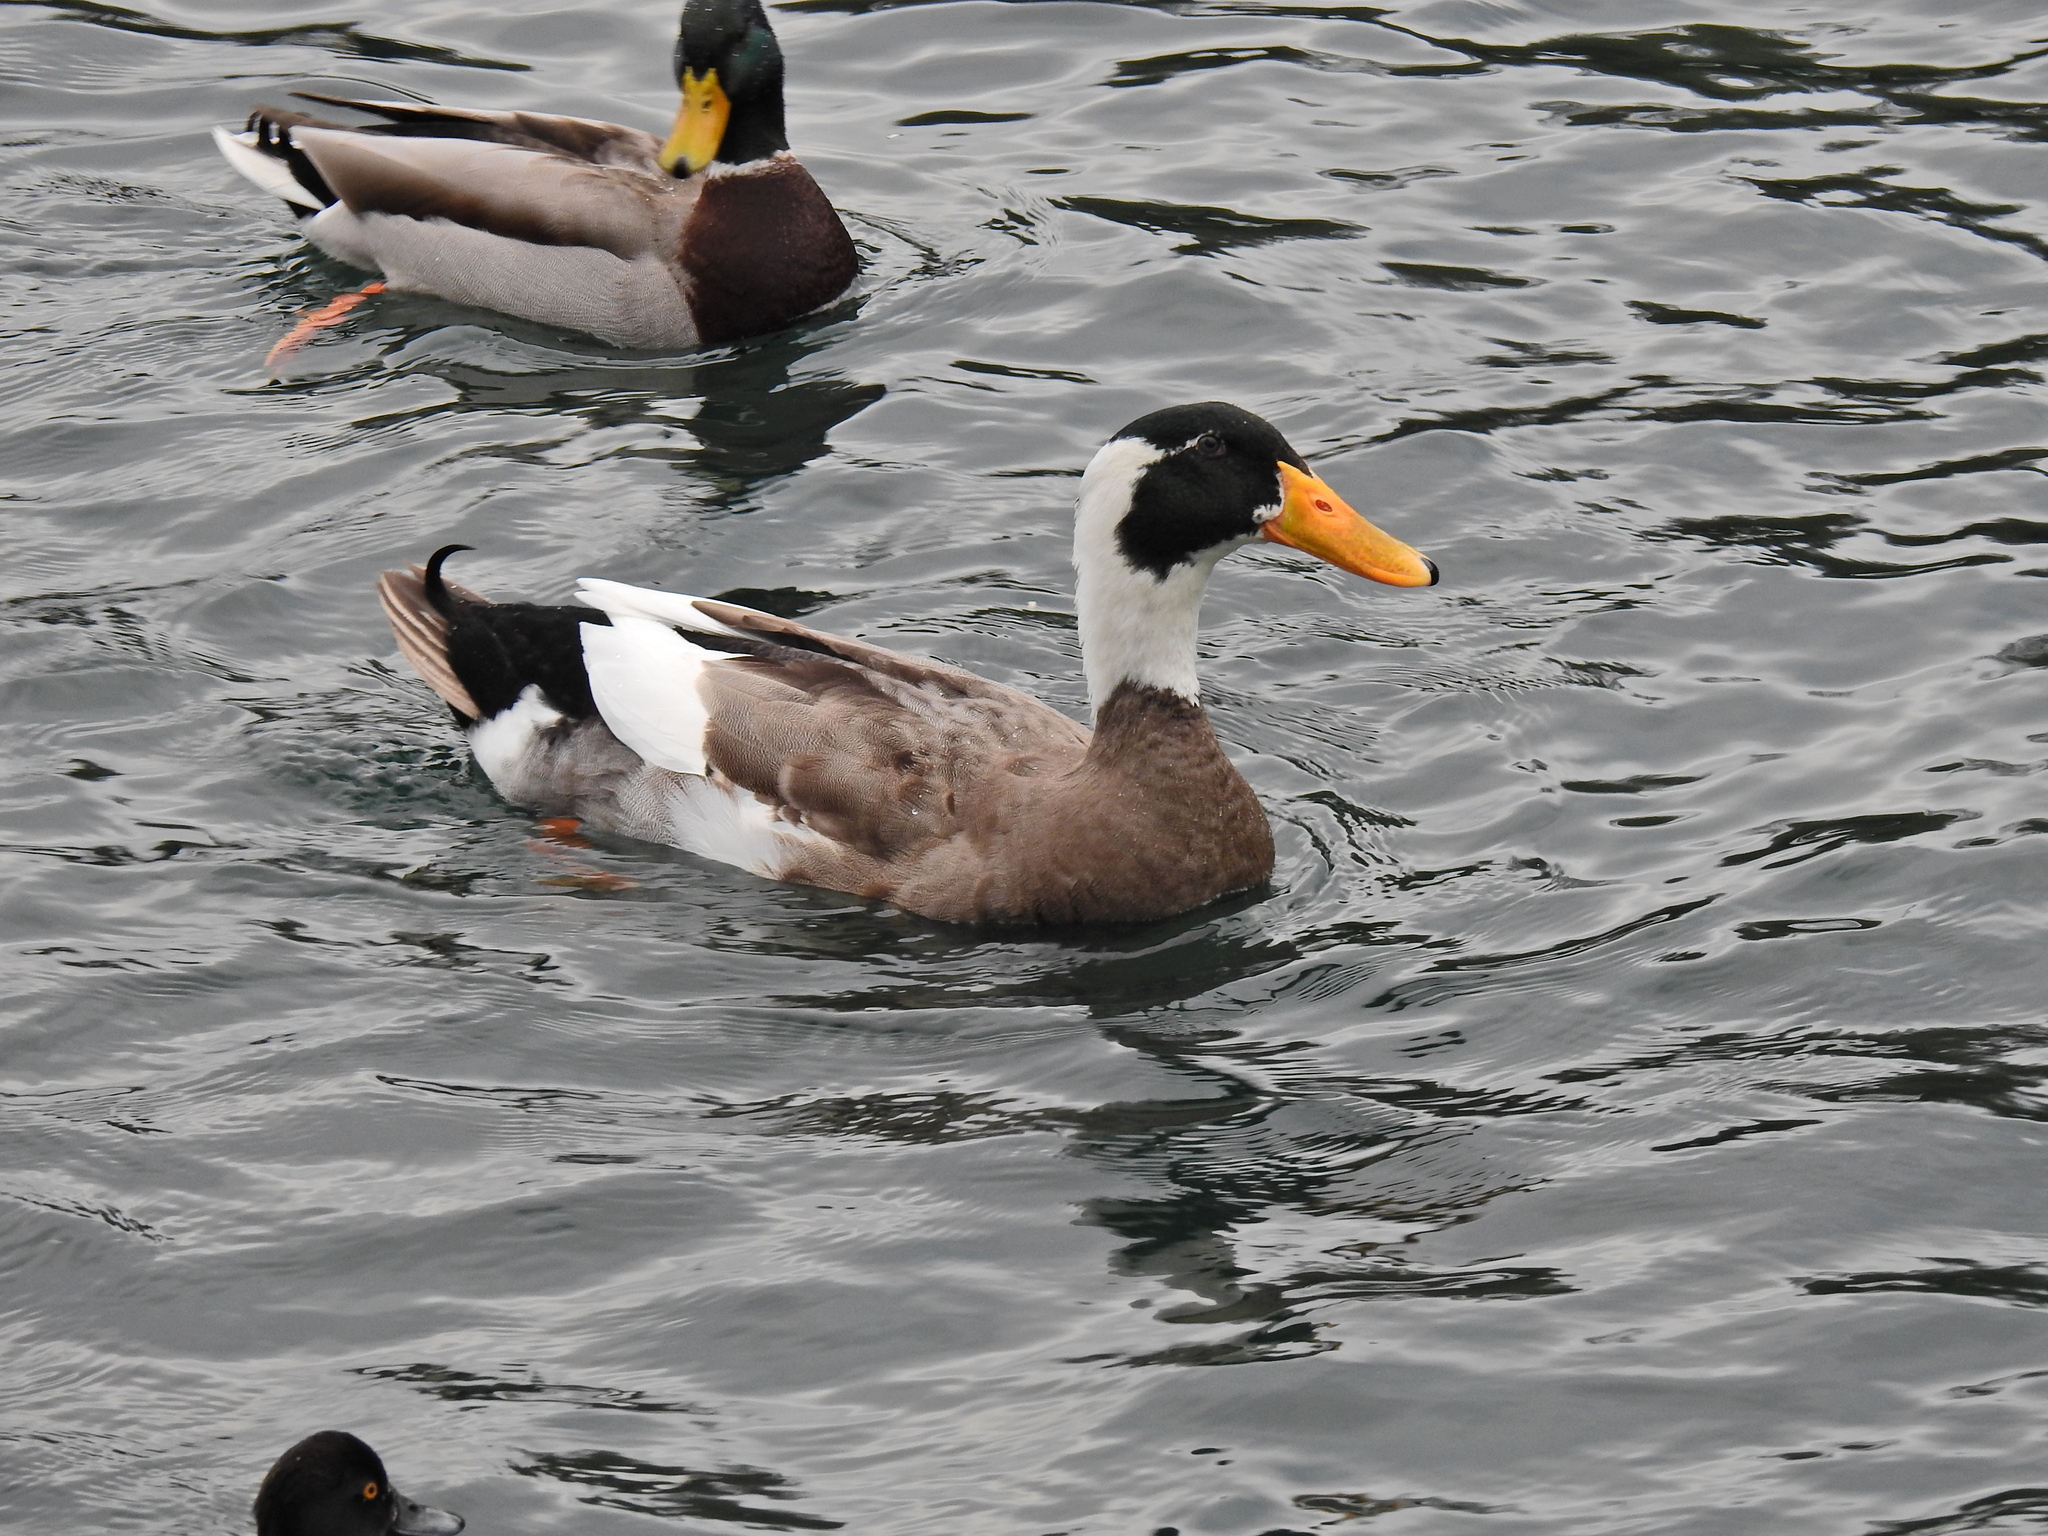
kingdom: Animalia
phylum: Chordata
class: Aves
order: Anseriformes
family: Anatidae
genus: Anas
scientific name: Anas platyrhynchos
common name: Mallard
